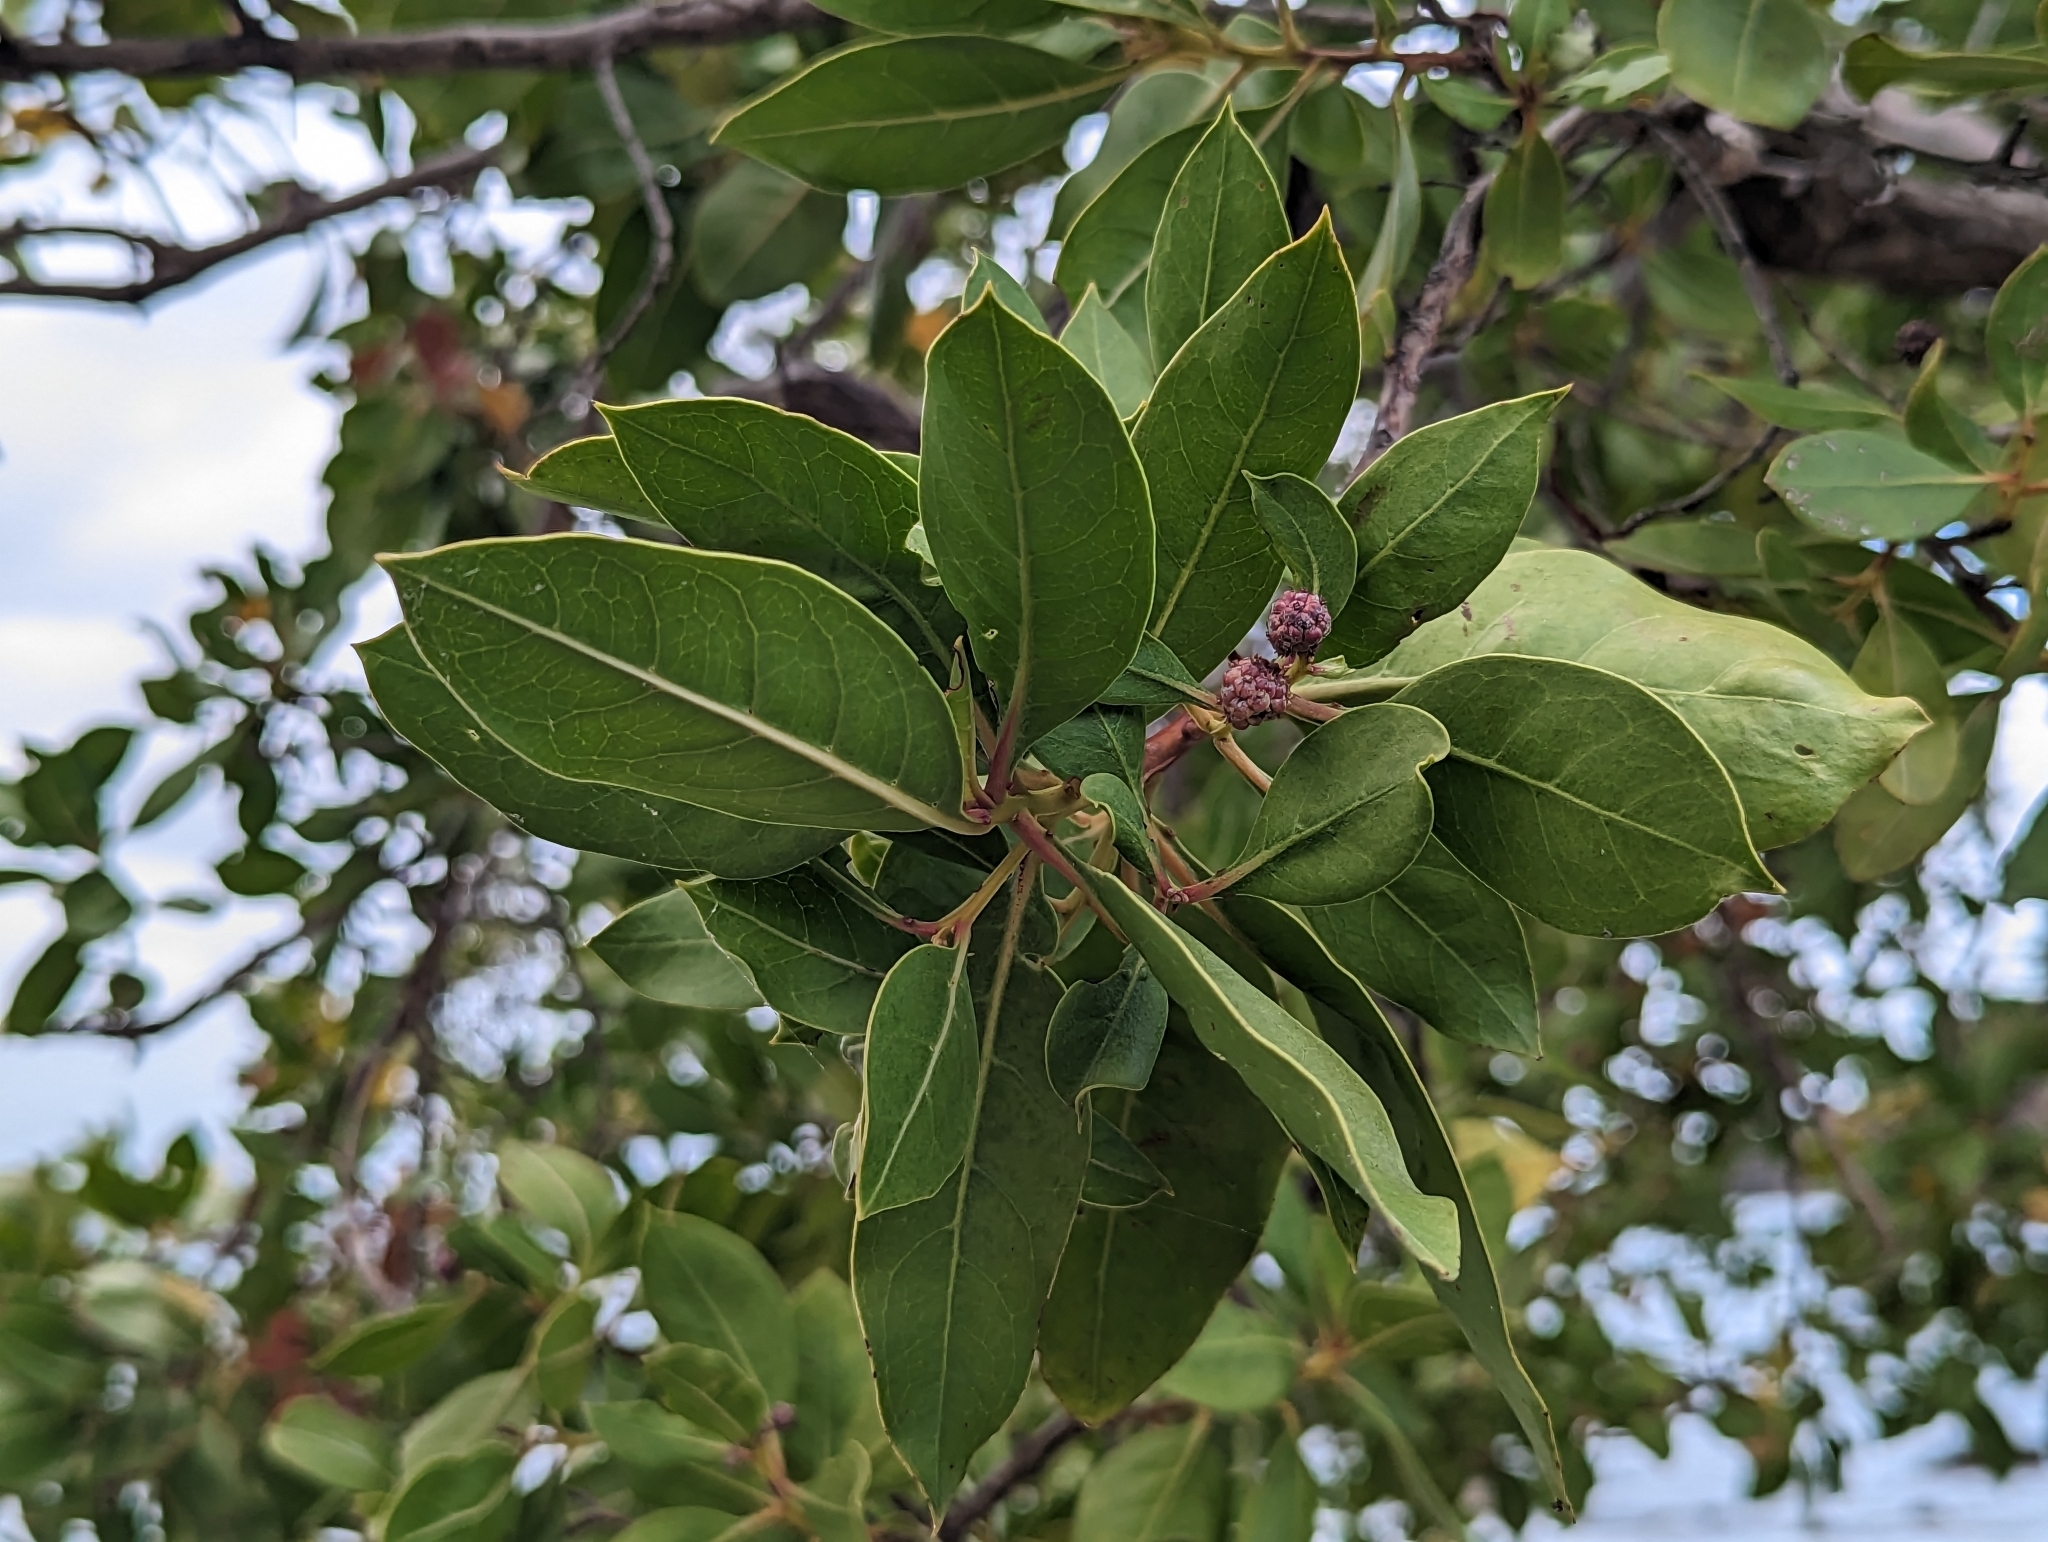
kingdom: Plantae
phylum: Tracheophyta
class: Magnoliopsida
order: Myrtales
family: Combretaceae
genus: Conocarpus
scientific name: Conocarpus erectus
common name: Button mangrove
